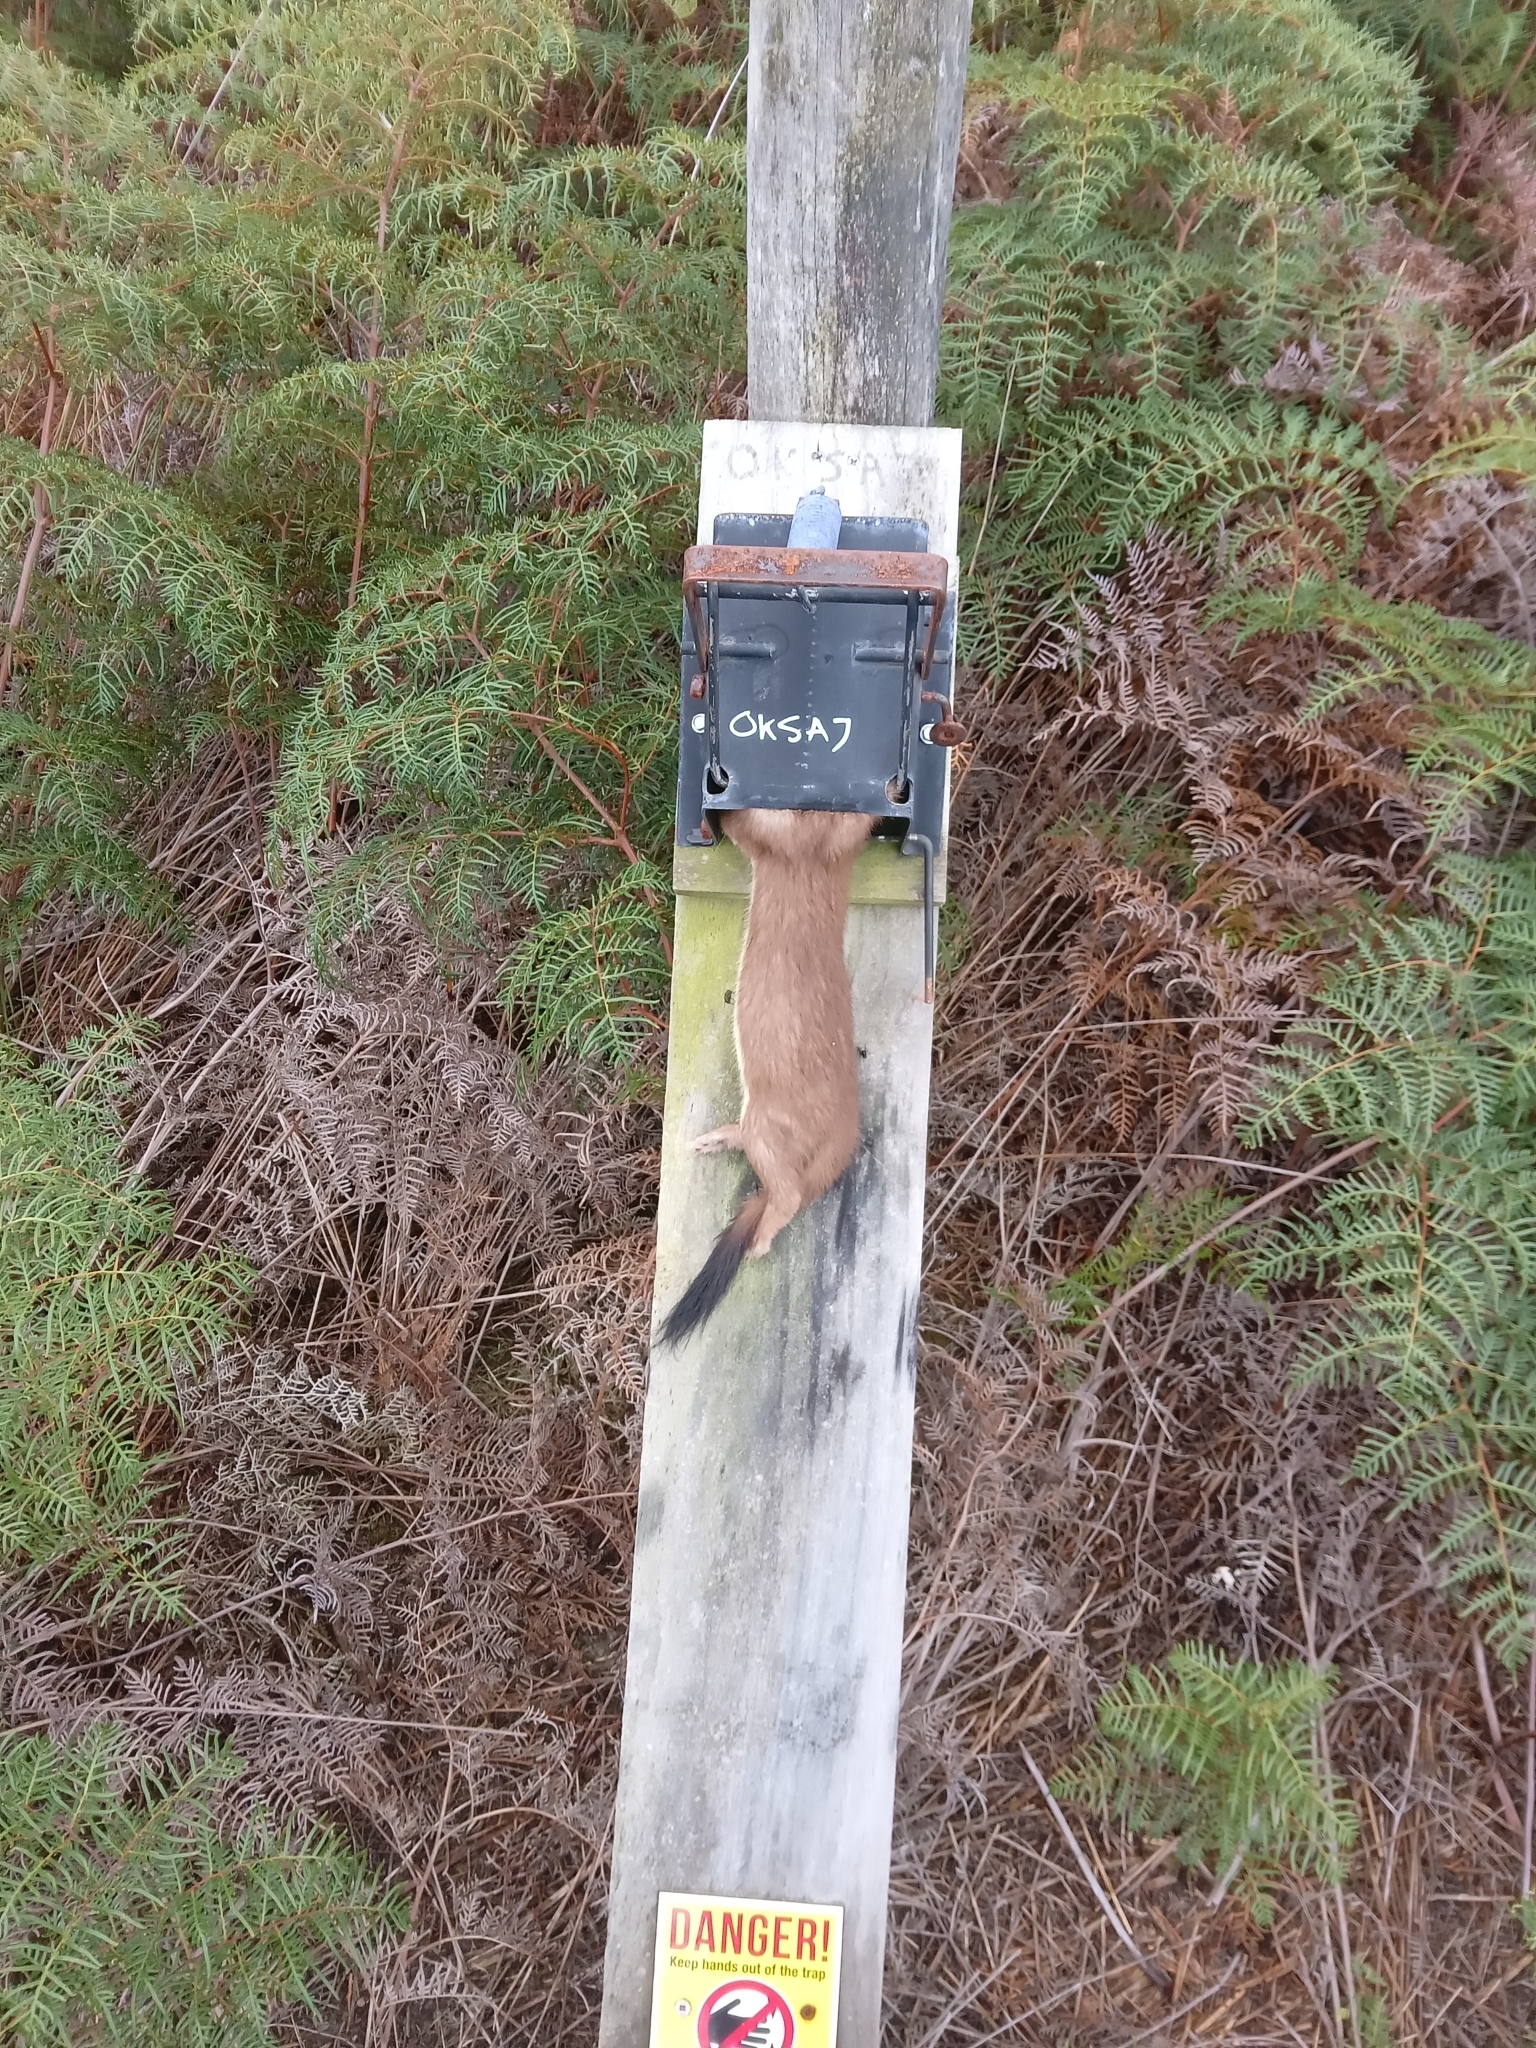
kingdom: Animalia
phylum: Chordata
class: Mammalia
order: Carnivora
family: Mustelidae
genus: Mustela
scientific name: Mustela erminea
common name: Stoat
